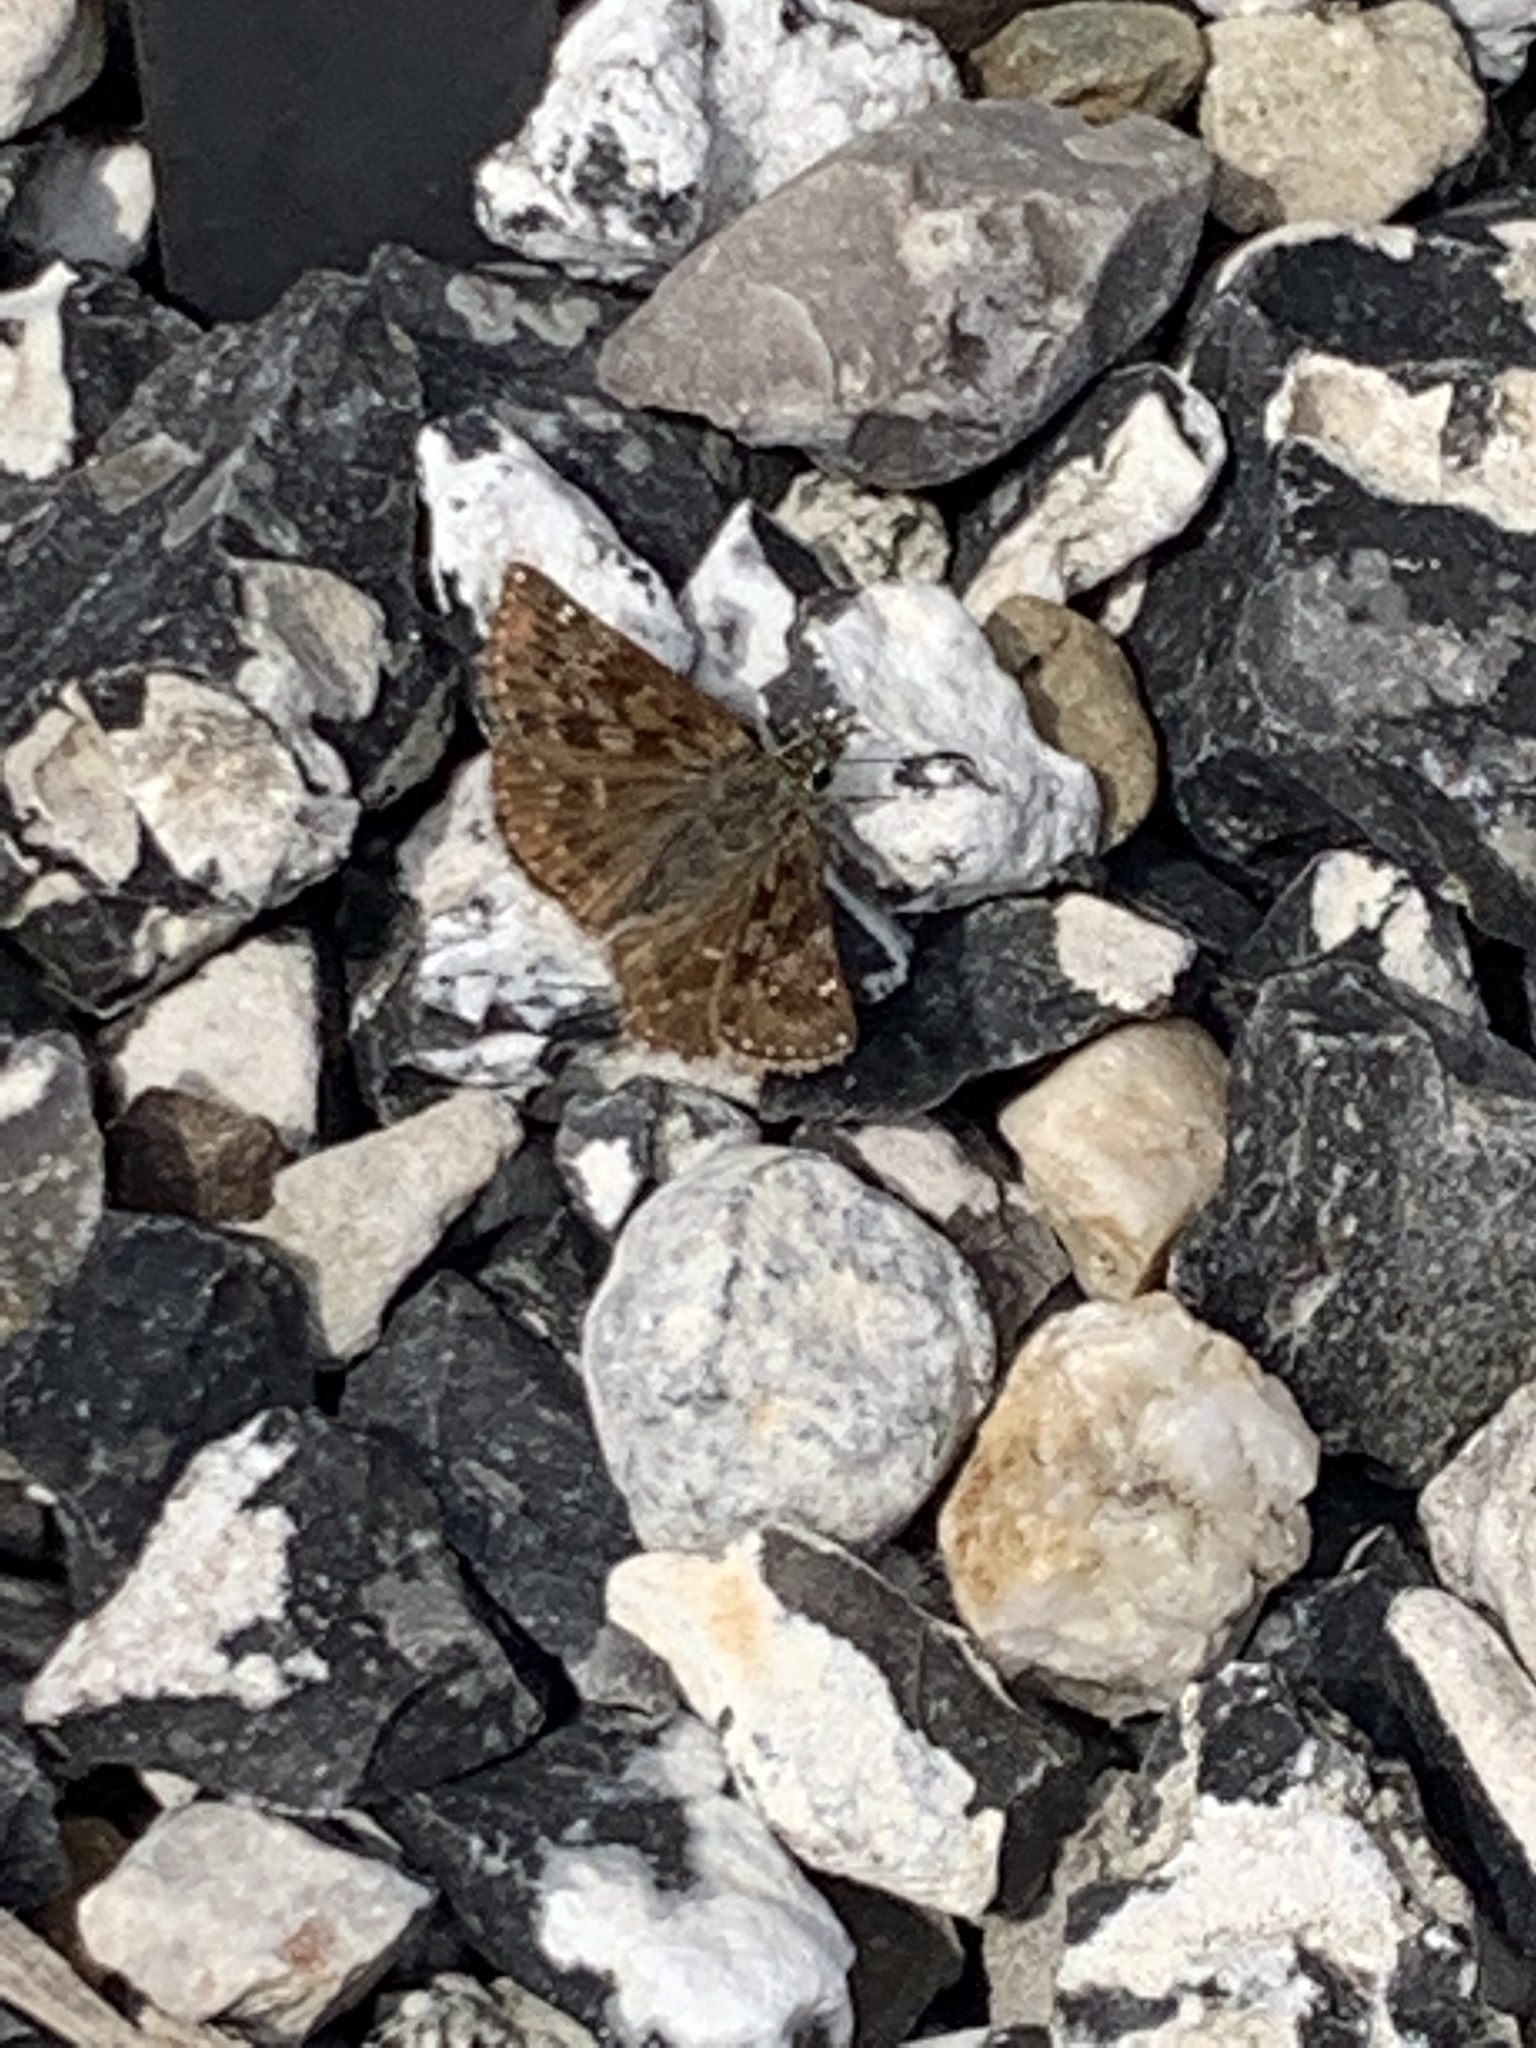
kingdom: Animalia
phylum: Arthropoda
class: Insecta
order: Lepidoptera
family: Hesperiidae
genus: Erynnis
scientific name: Erynnis tages
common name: Dingy skipper
